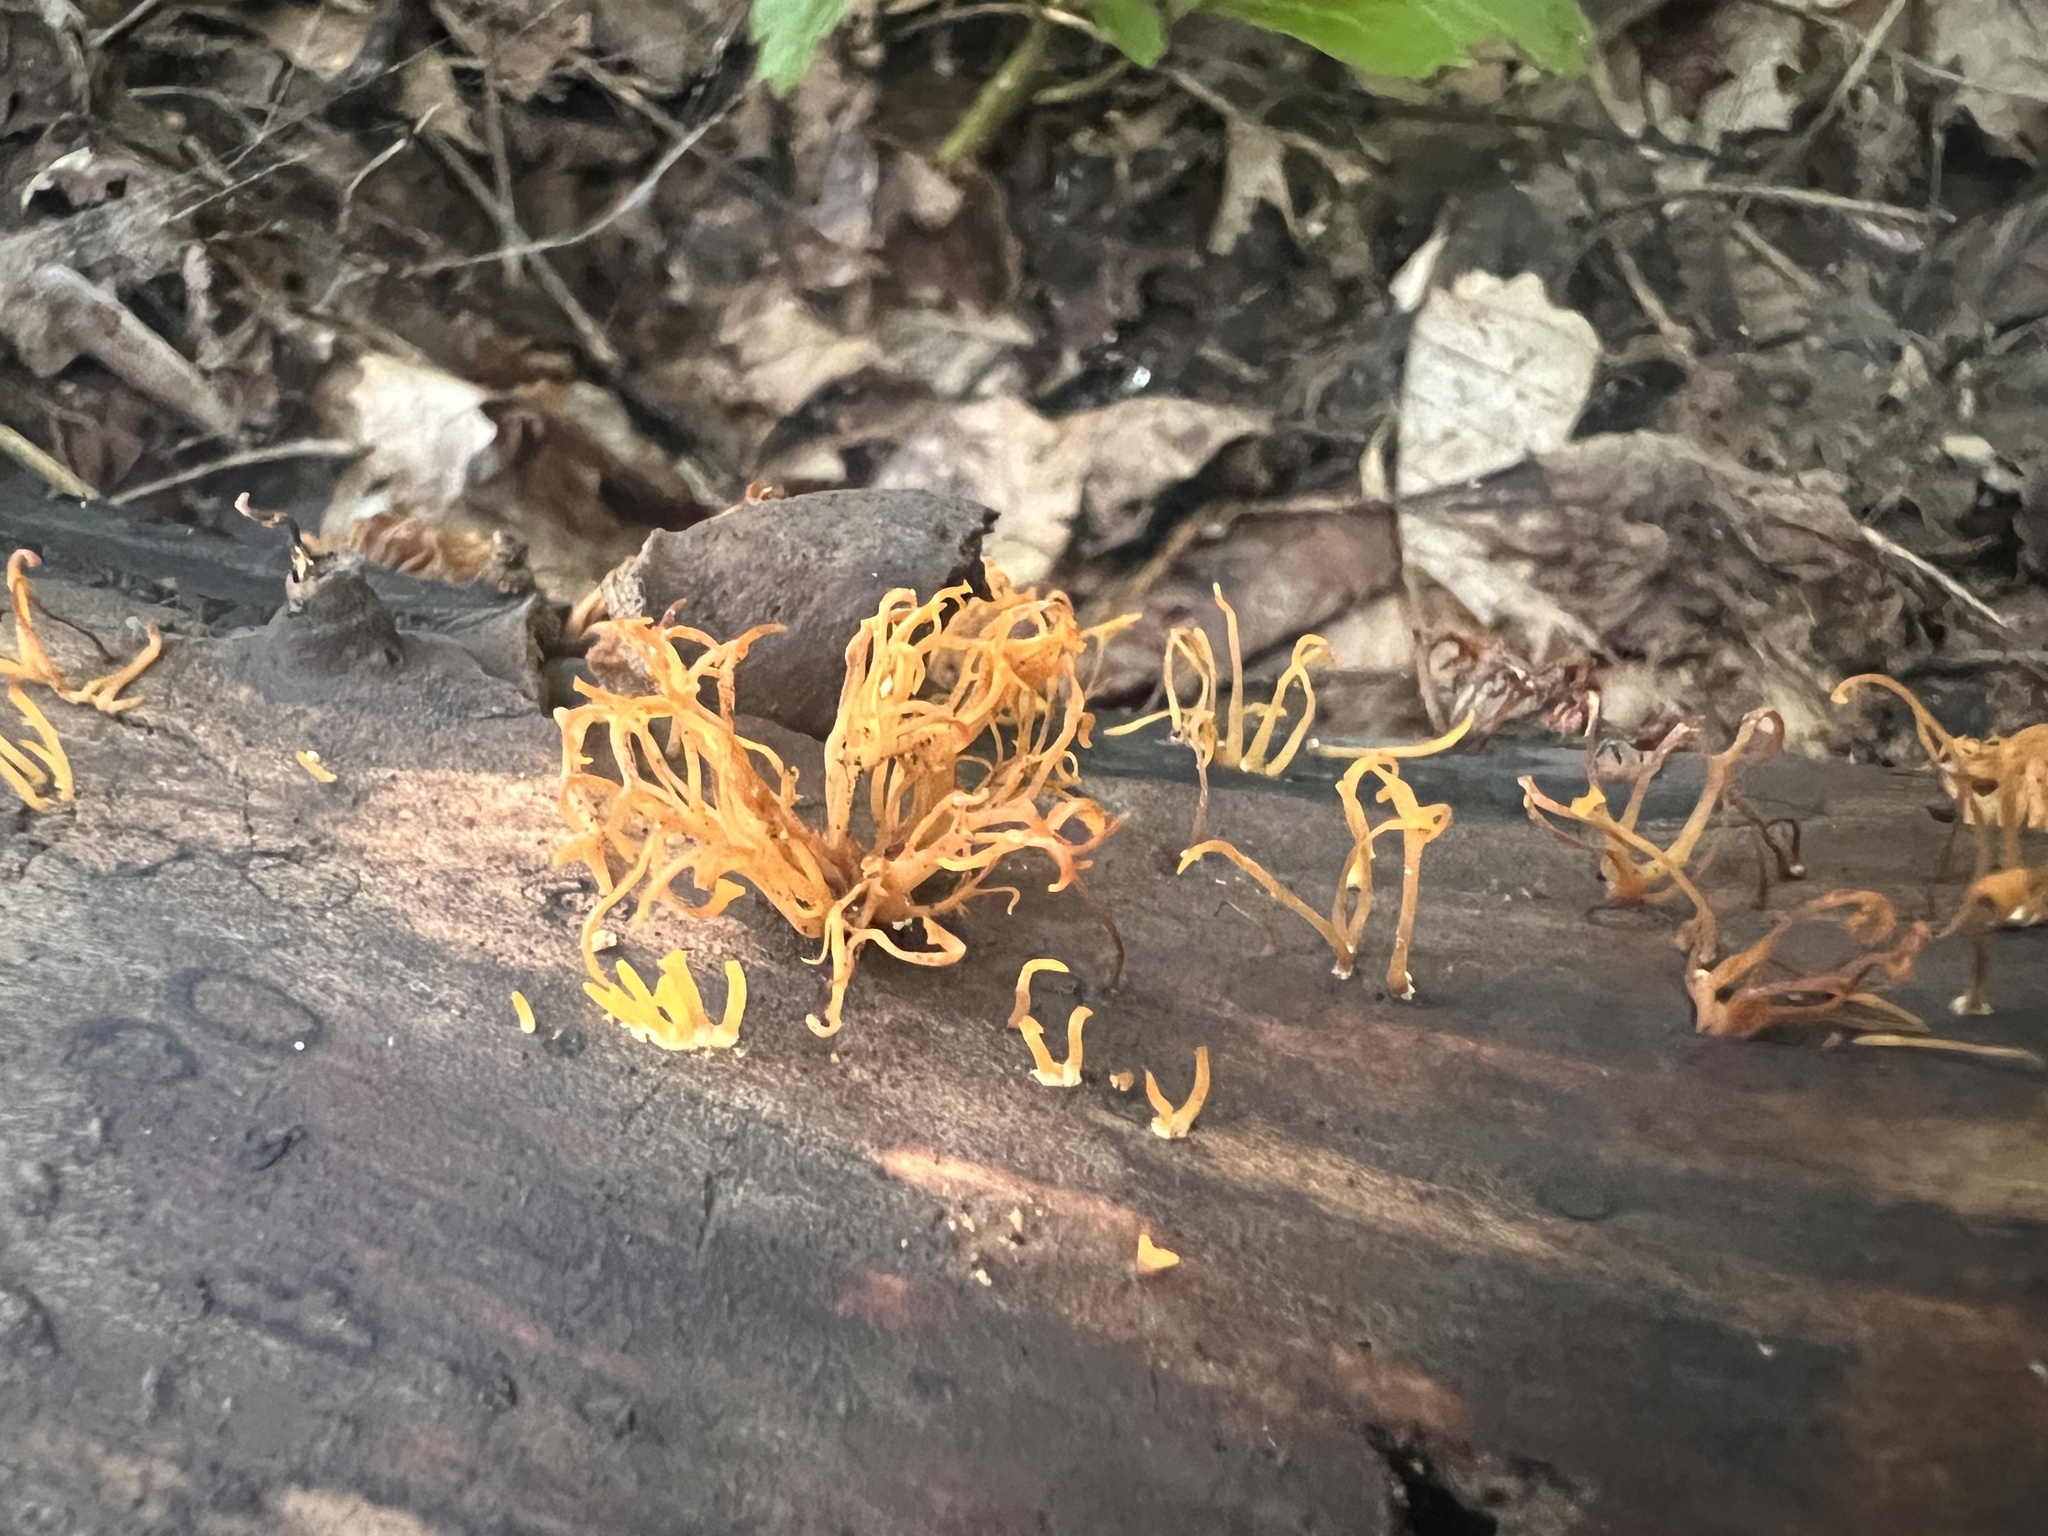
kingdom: Fungi
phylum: Basidiomycota
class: Dacrymycetes
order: Dacrymycetales
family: Dacrymycetaceae
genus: Calocera
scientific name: Calocera cornea
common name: Small stagshorn
